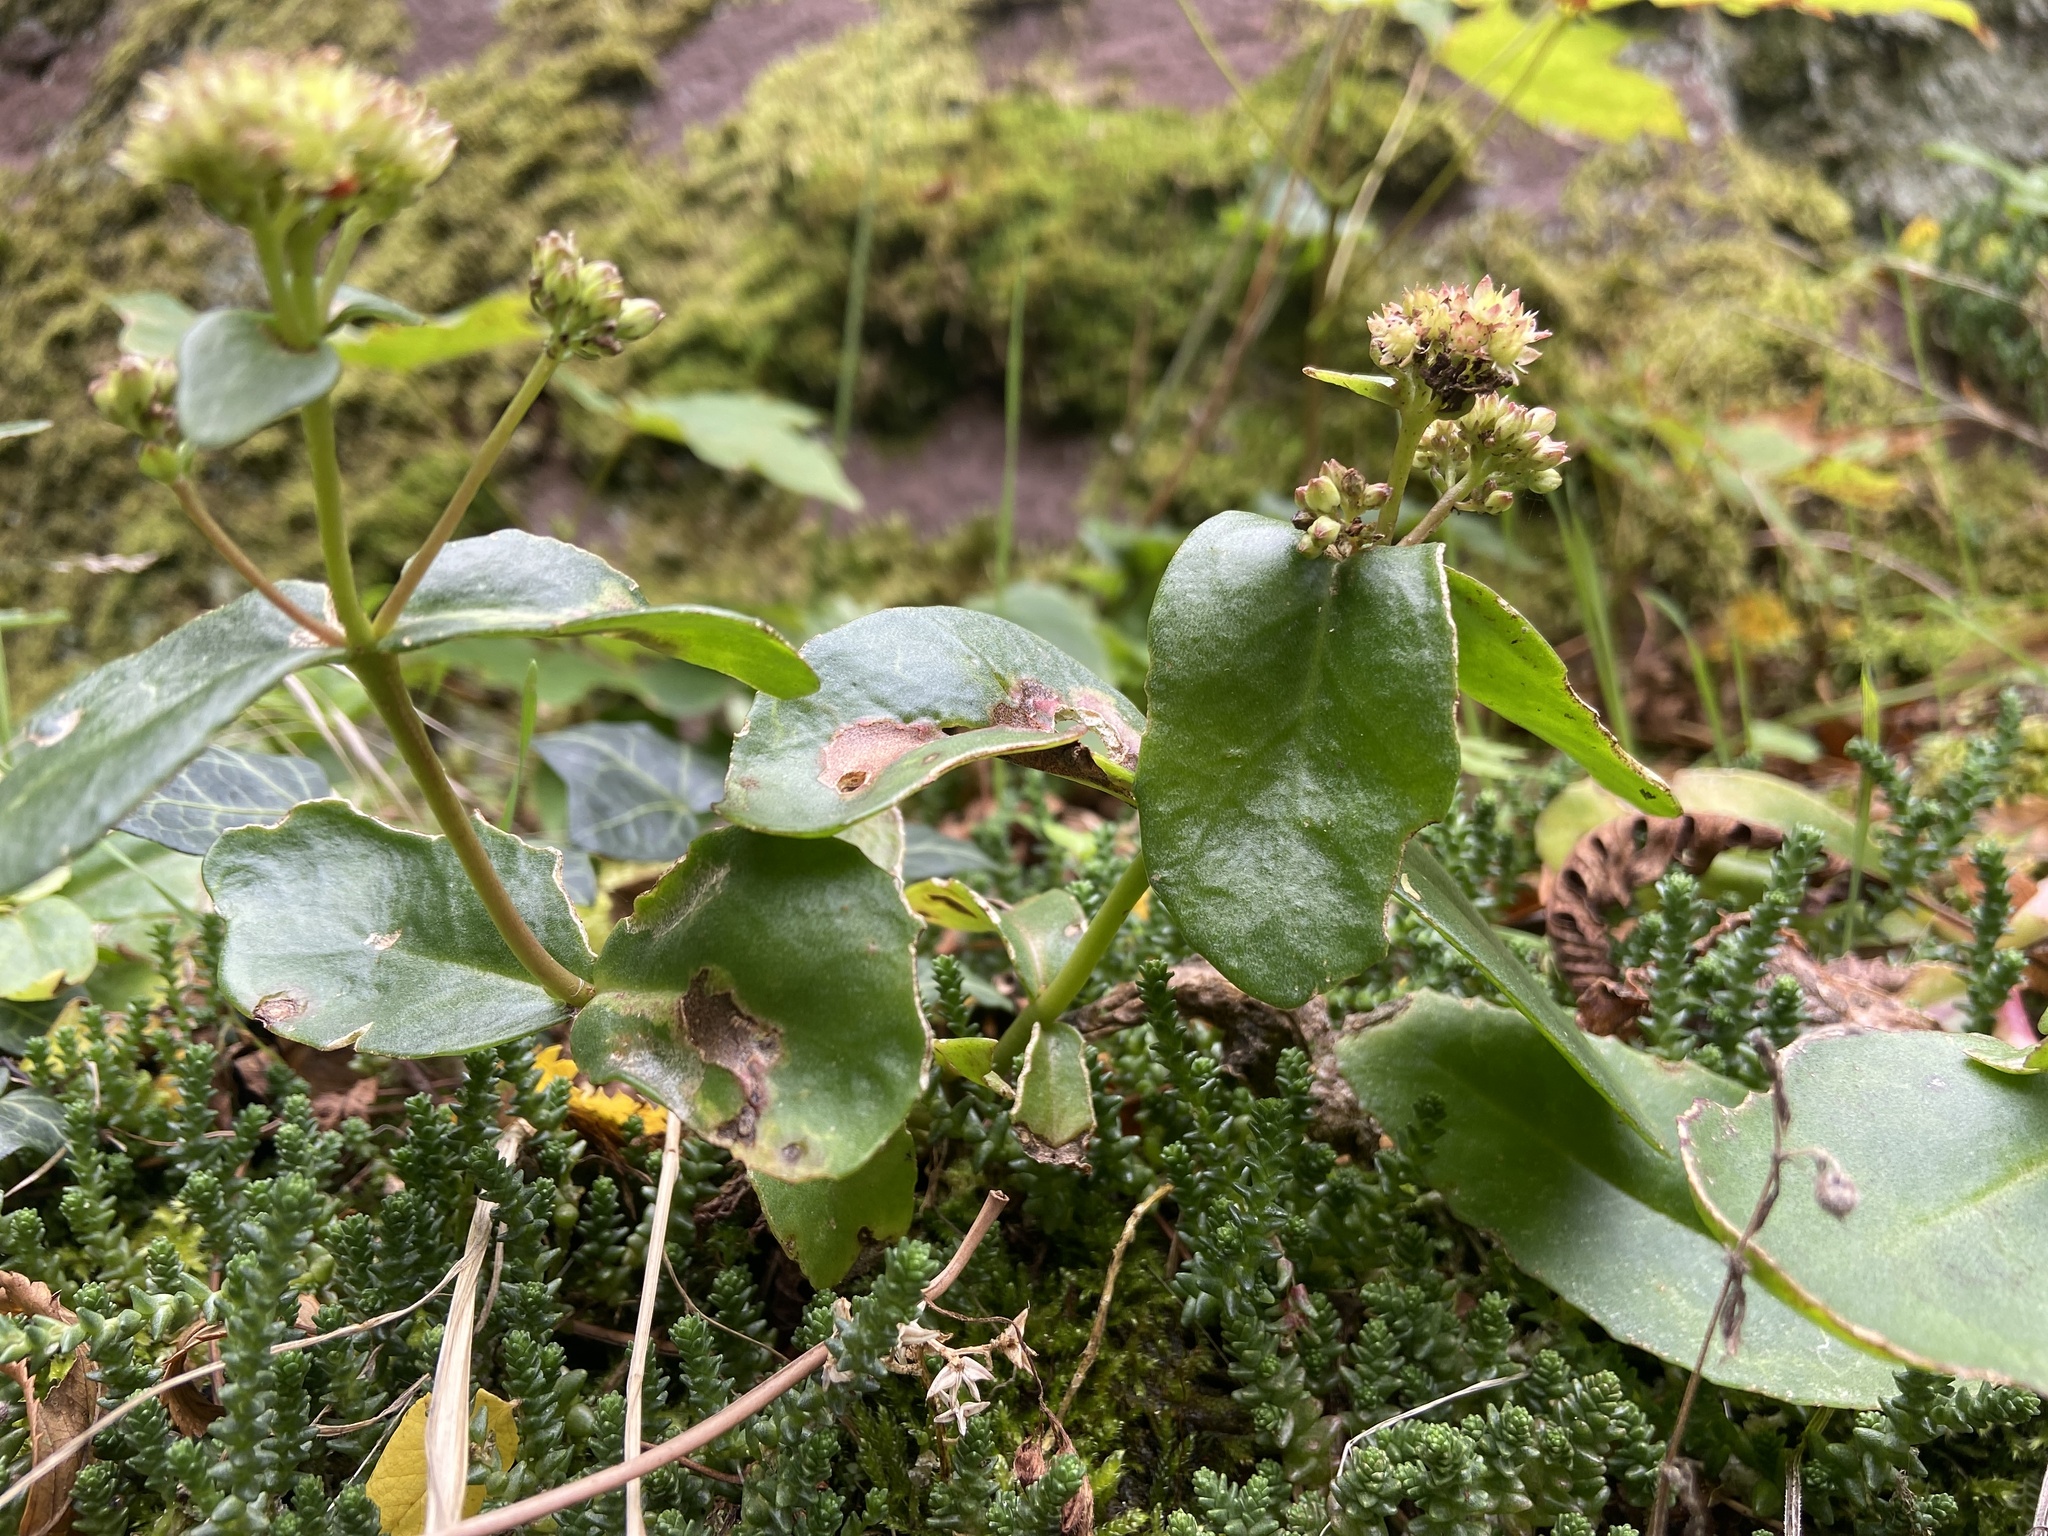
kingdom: Plantae
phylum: Tracheophyta
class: Magnoliopsida
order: Saxifragales
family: Crassulaceae
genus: Hylotelephium
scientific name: Hylotelephium maximum
